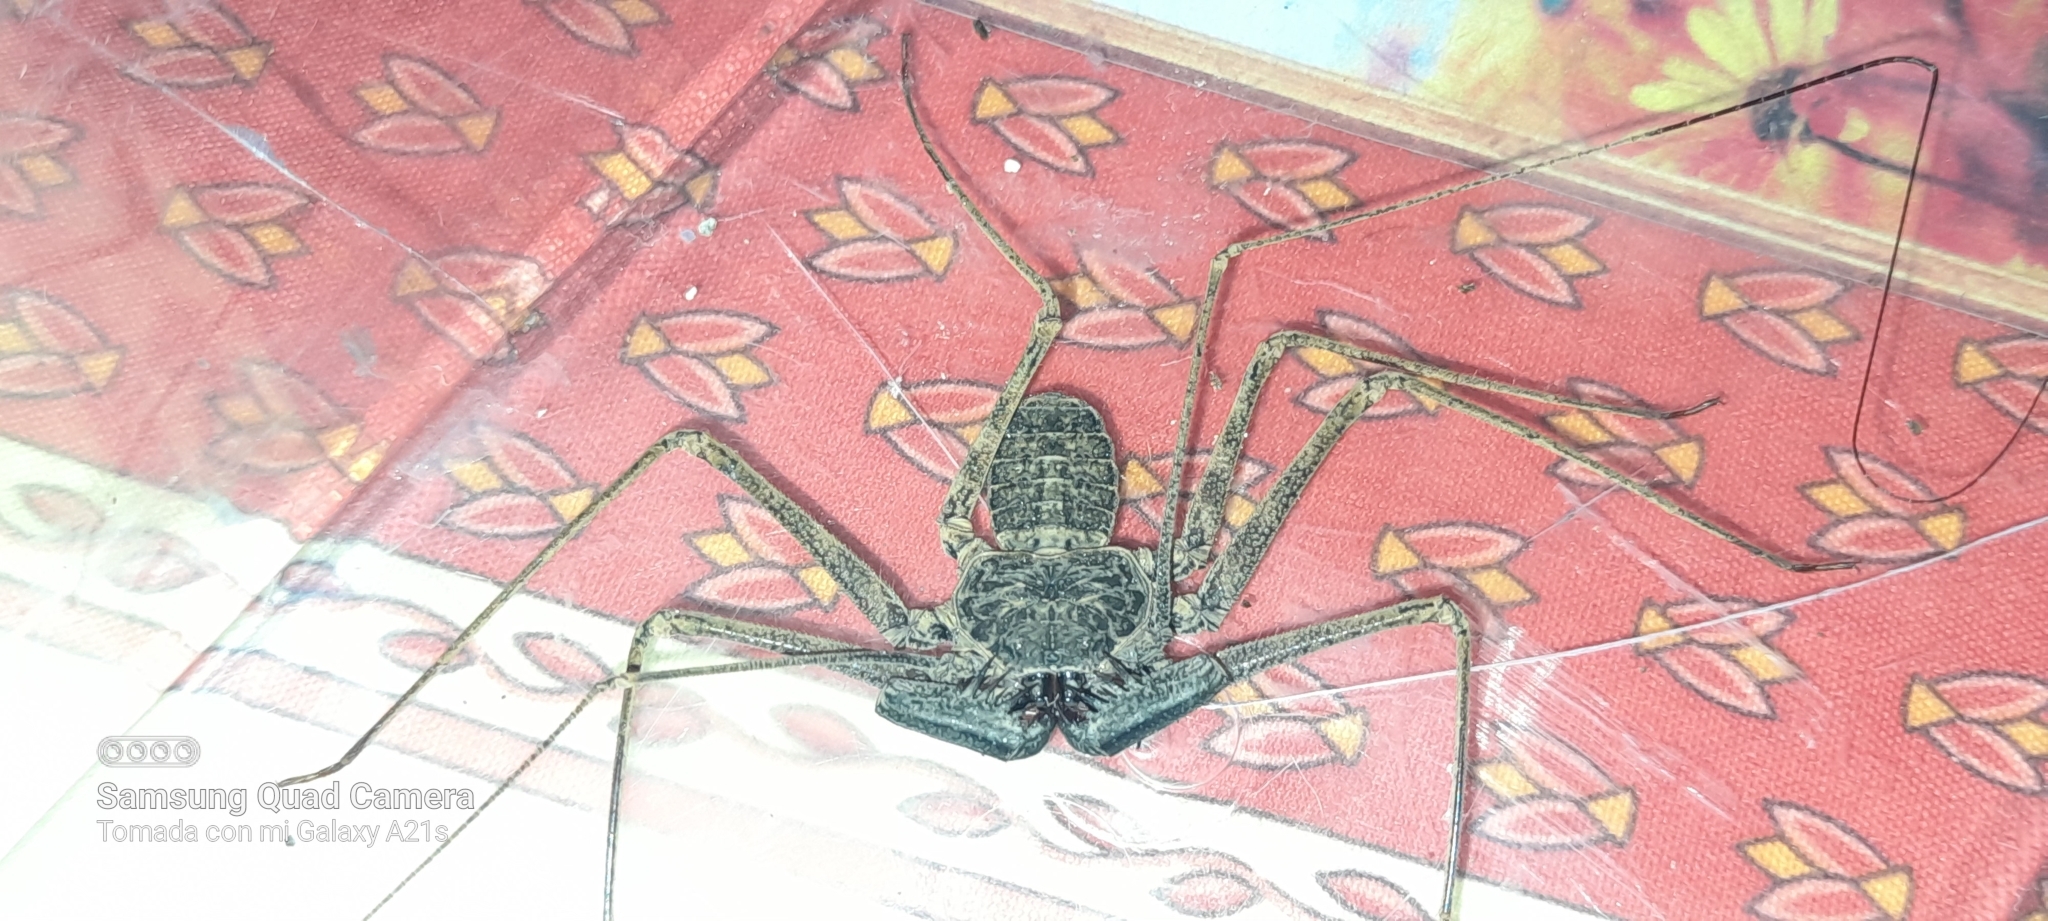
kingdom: Animalia
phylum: Arthropoda
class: Arachnida
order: Amblypygi
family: Phrynidae
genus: Paraphrynus
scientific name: Paraphrynus laevifrons
